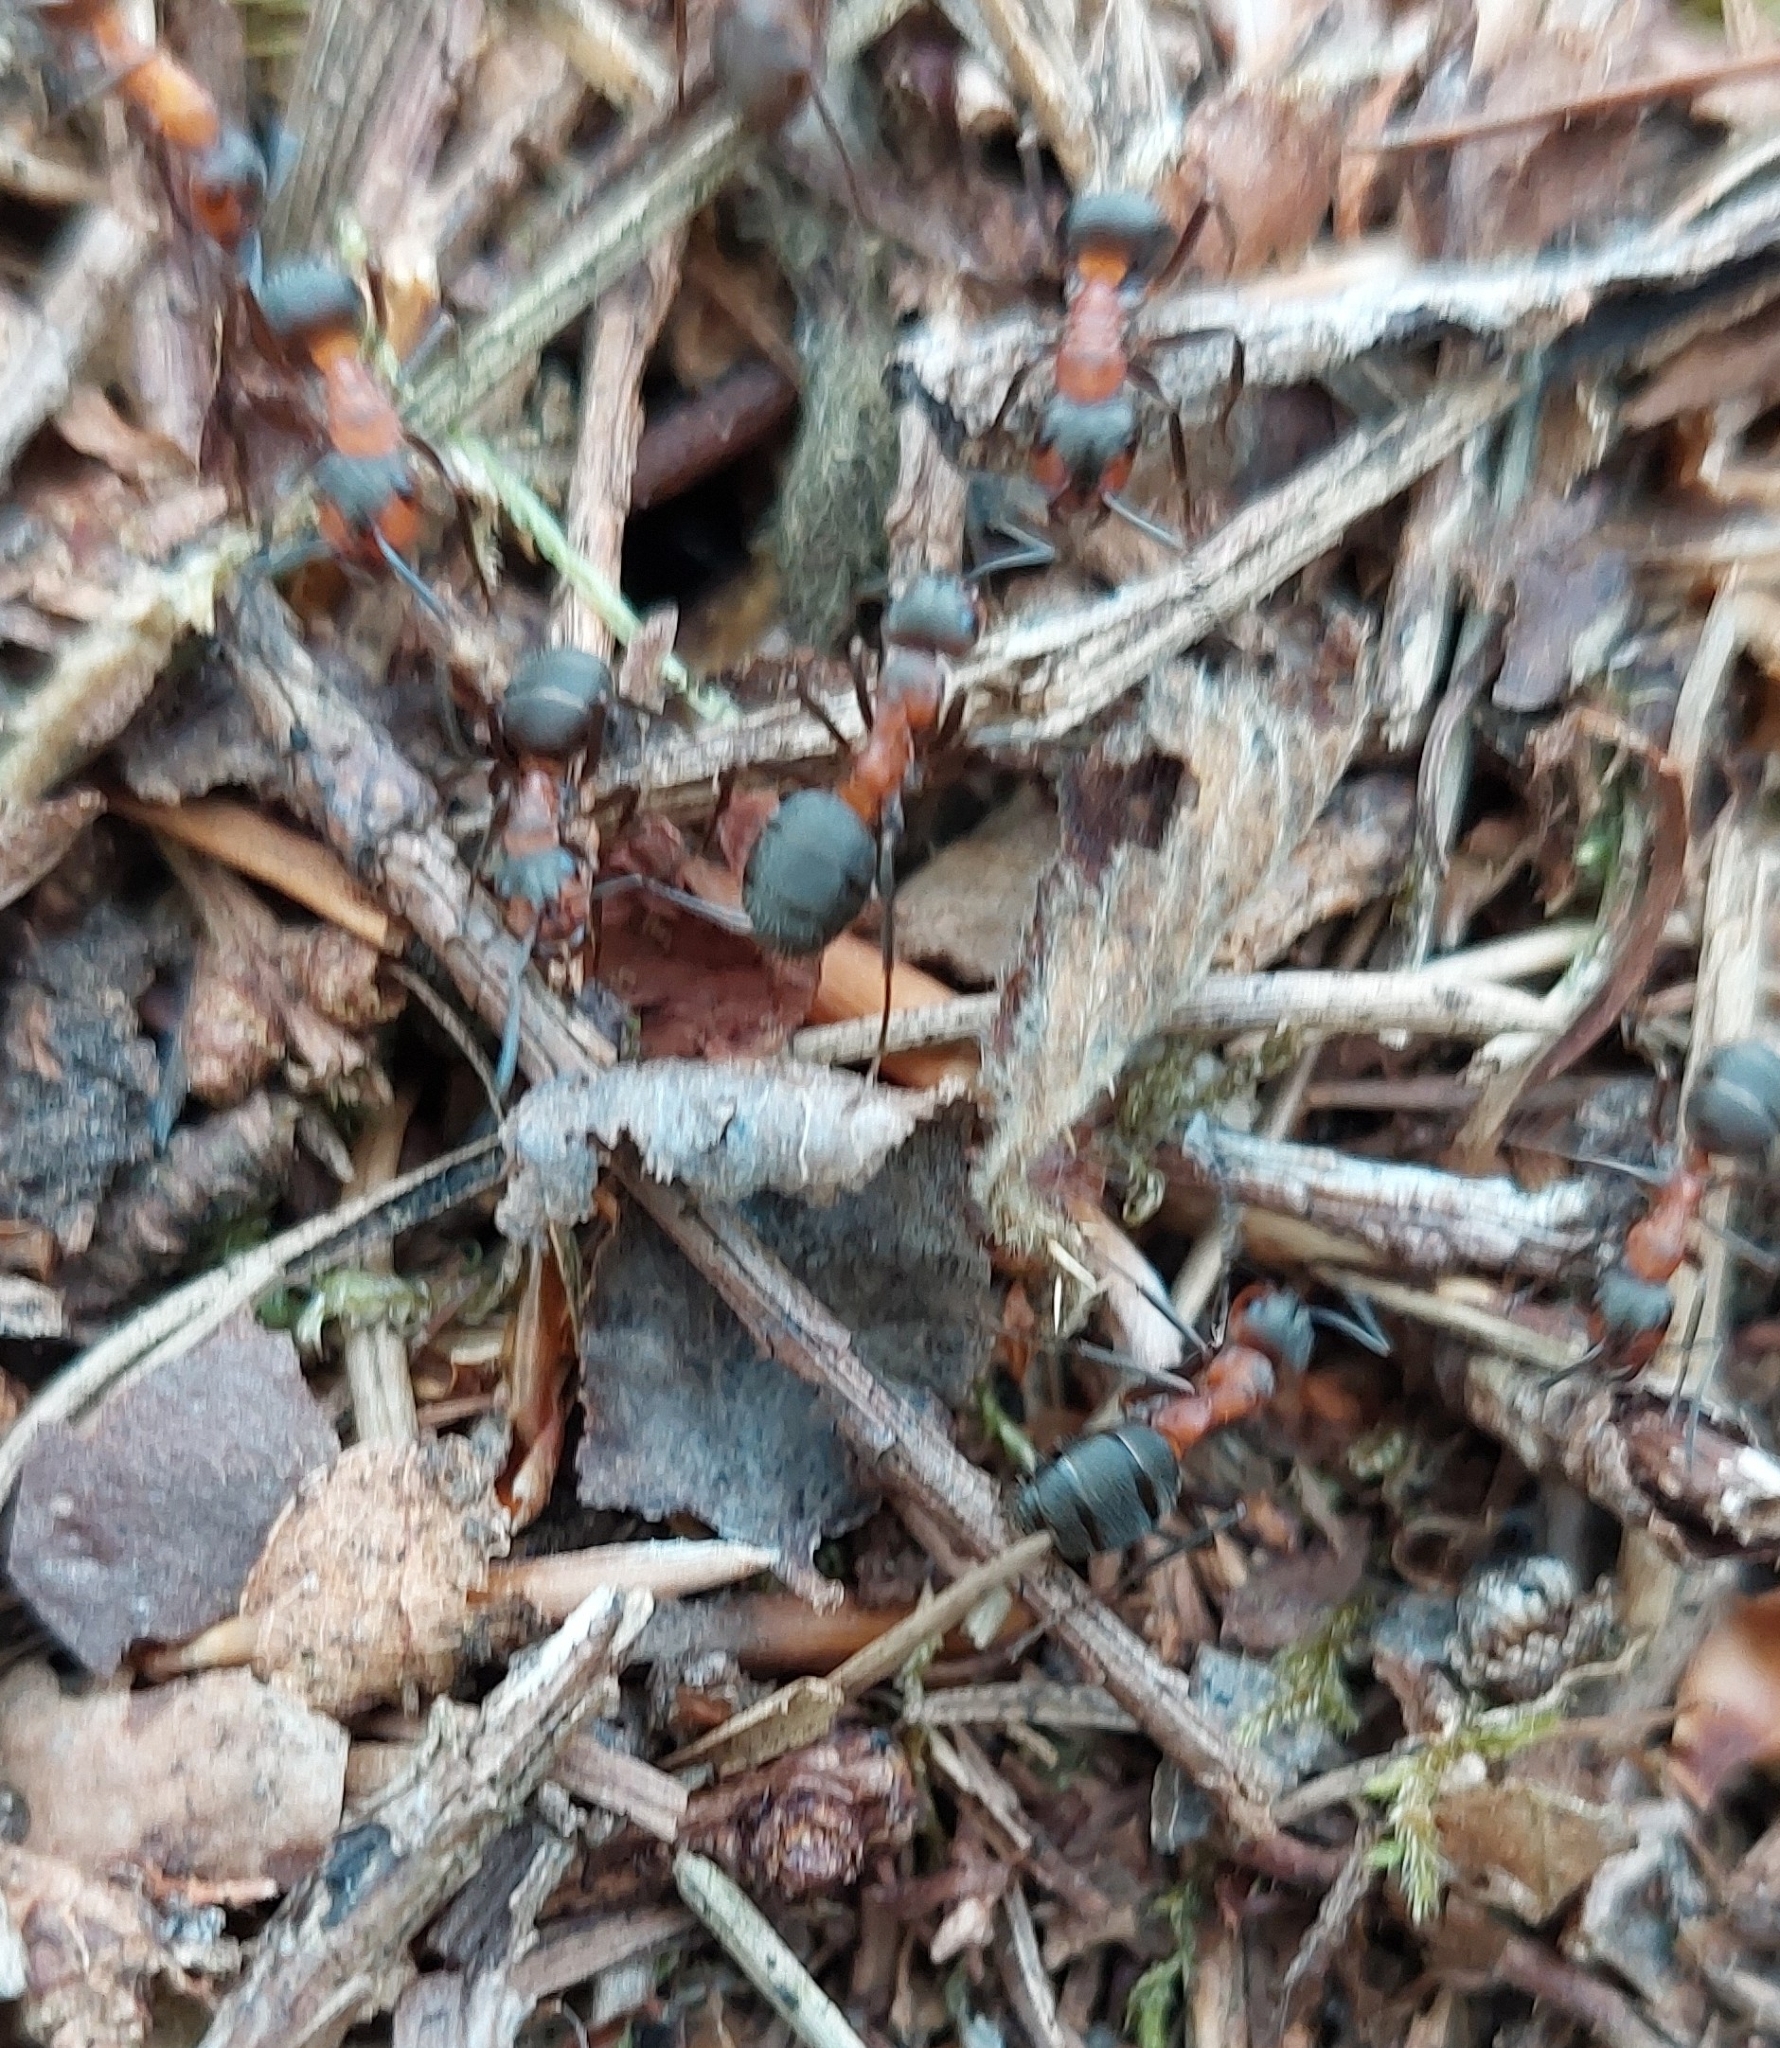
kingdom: Animalia
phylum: Arthropoda
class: Insecta
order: Hymenoptera
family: Formicidae
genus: Formica
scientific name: Formica
